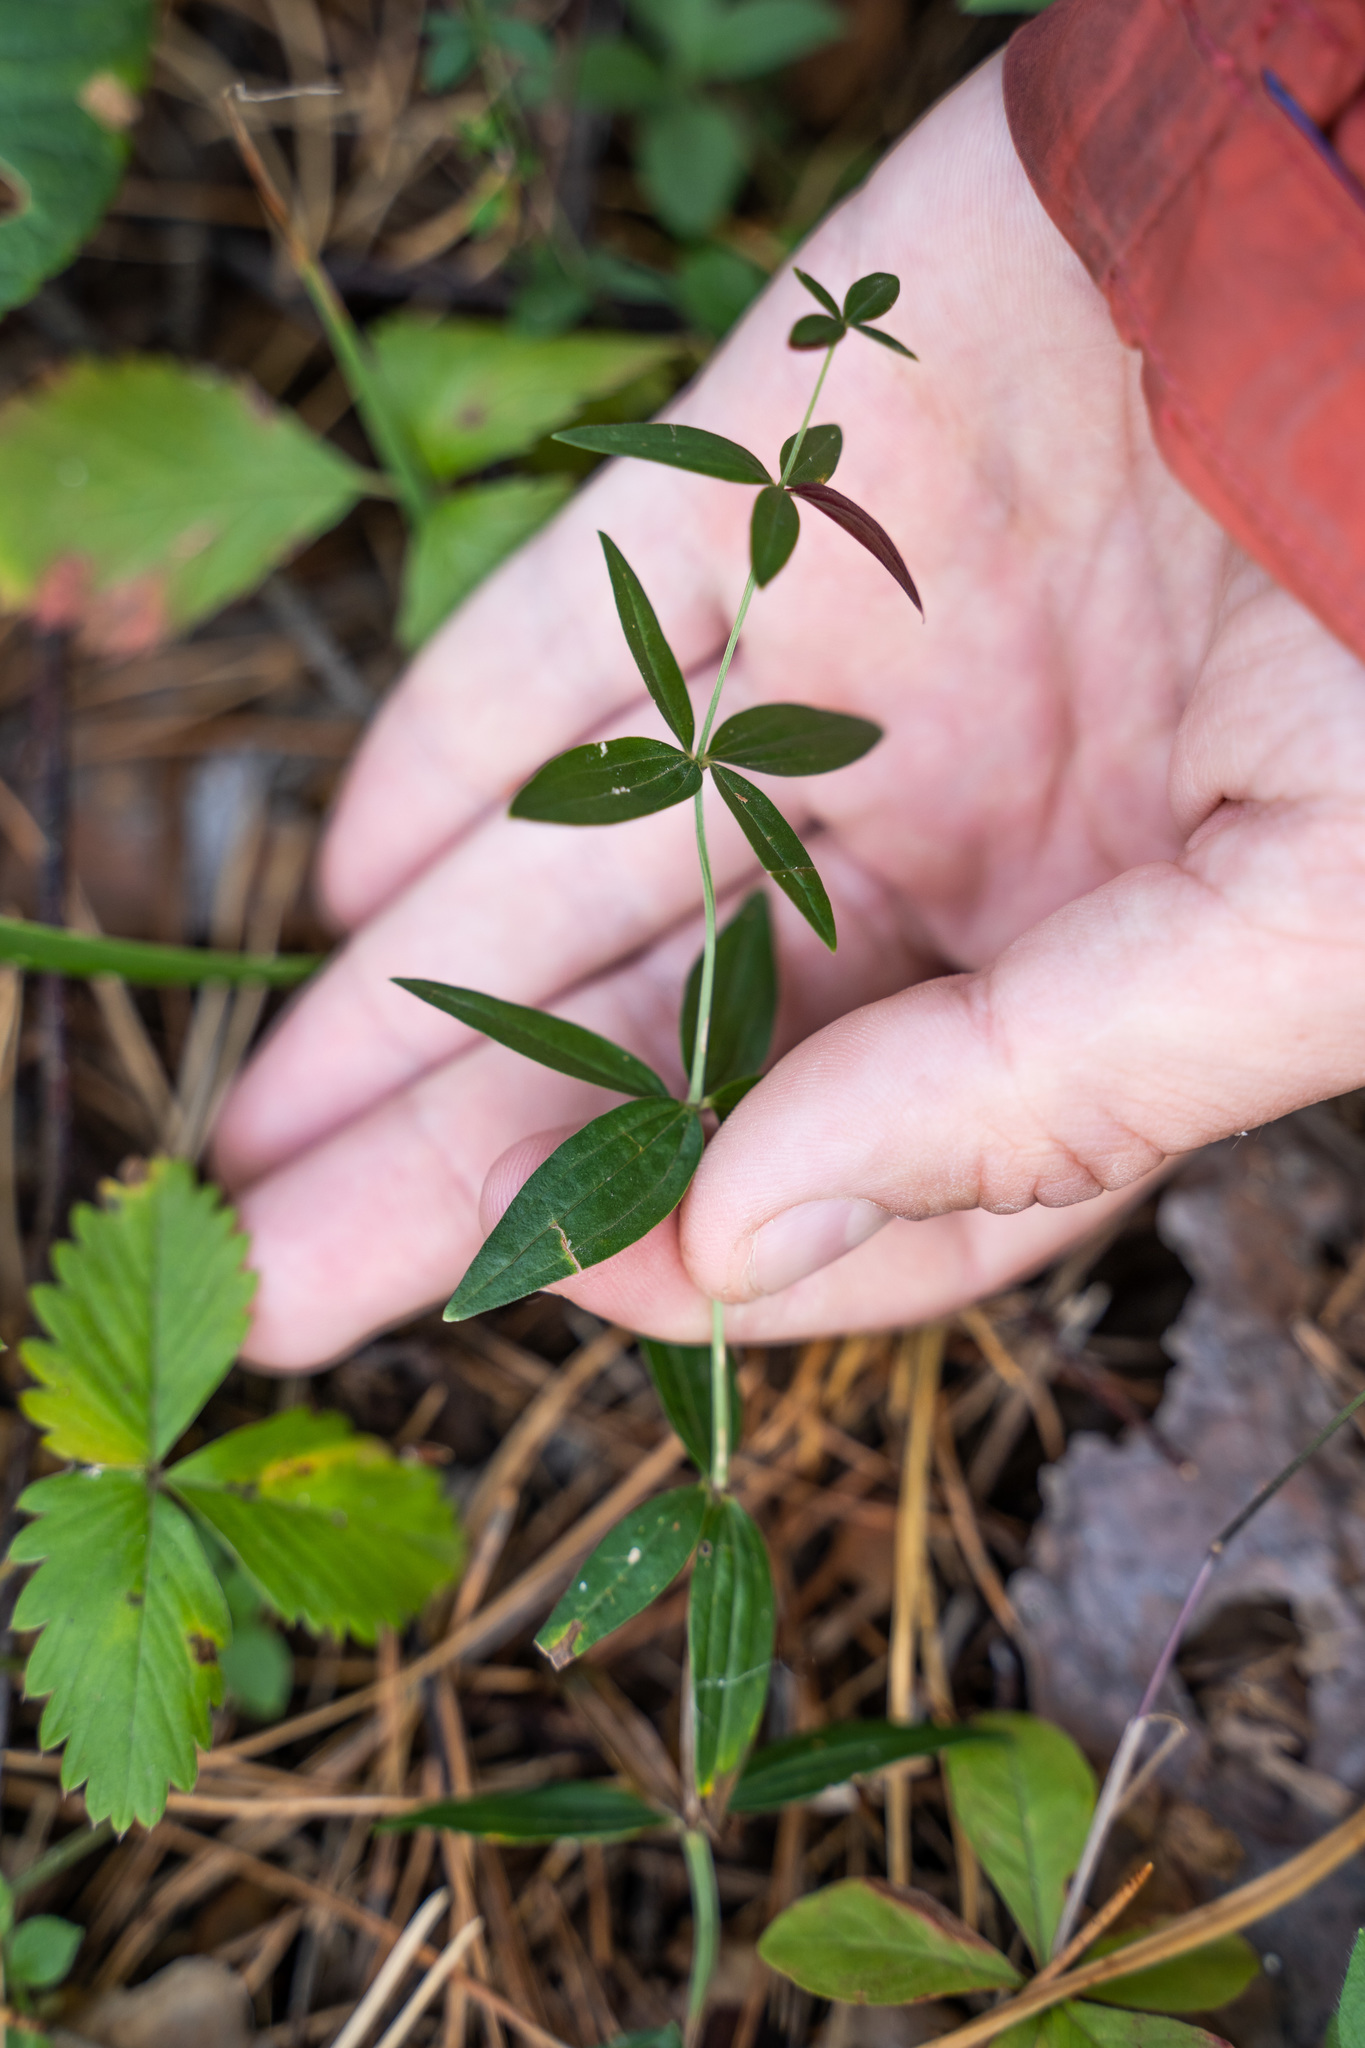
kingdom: Plantae
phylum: Tracheophyta
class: Magnoliopsida
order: Gentianales
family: Rubiaceae
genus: Galium
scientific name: Galium boreale
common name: Northern bedstraw
